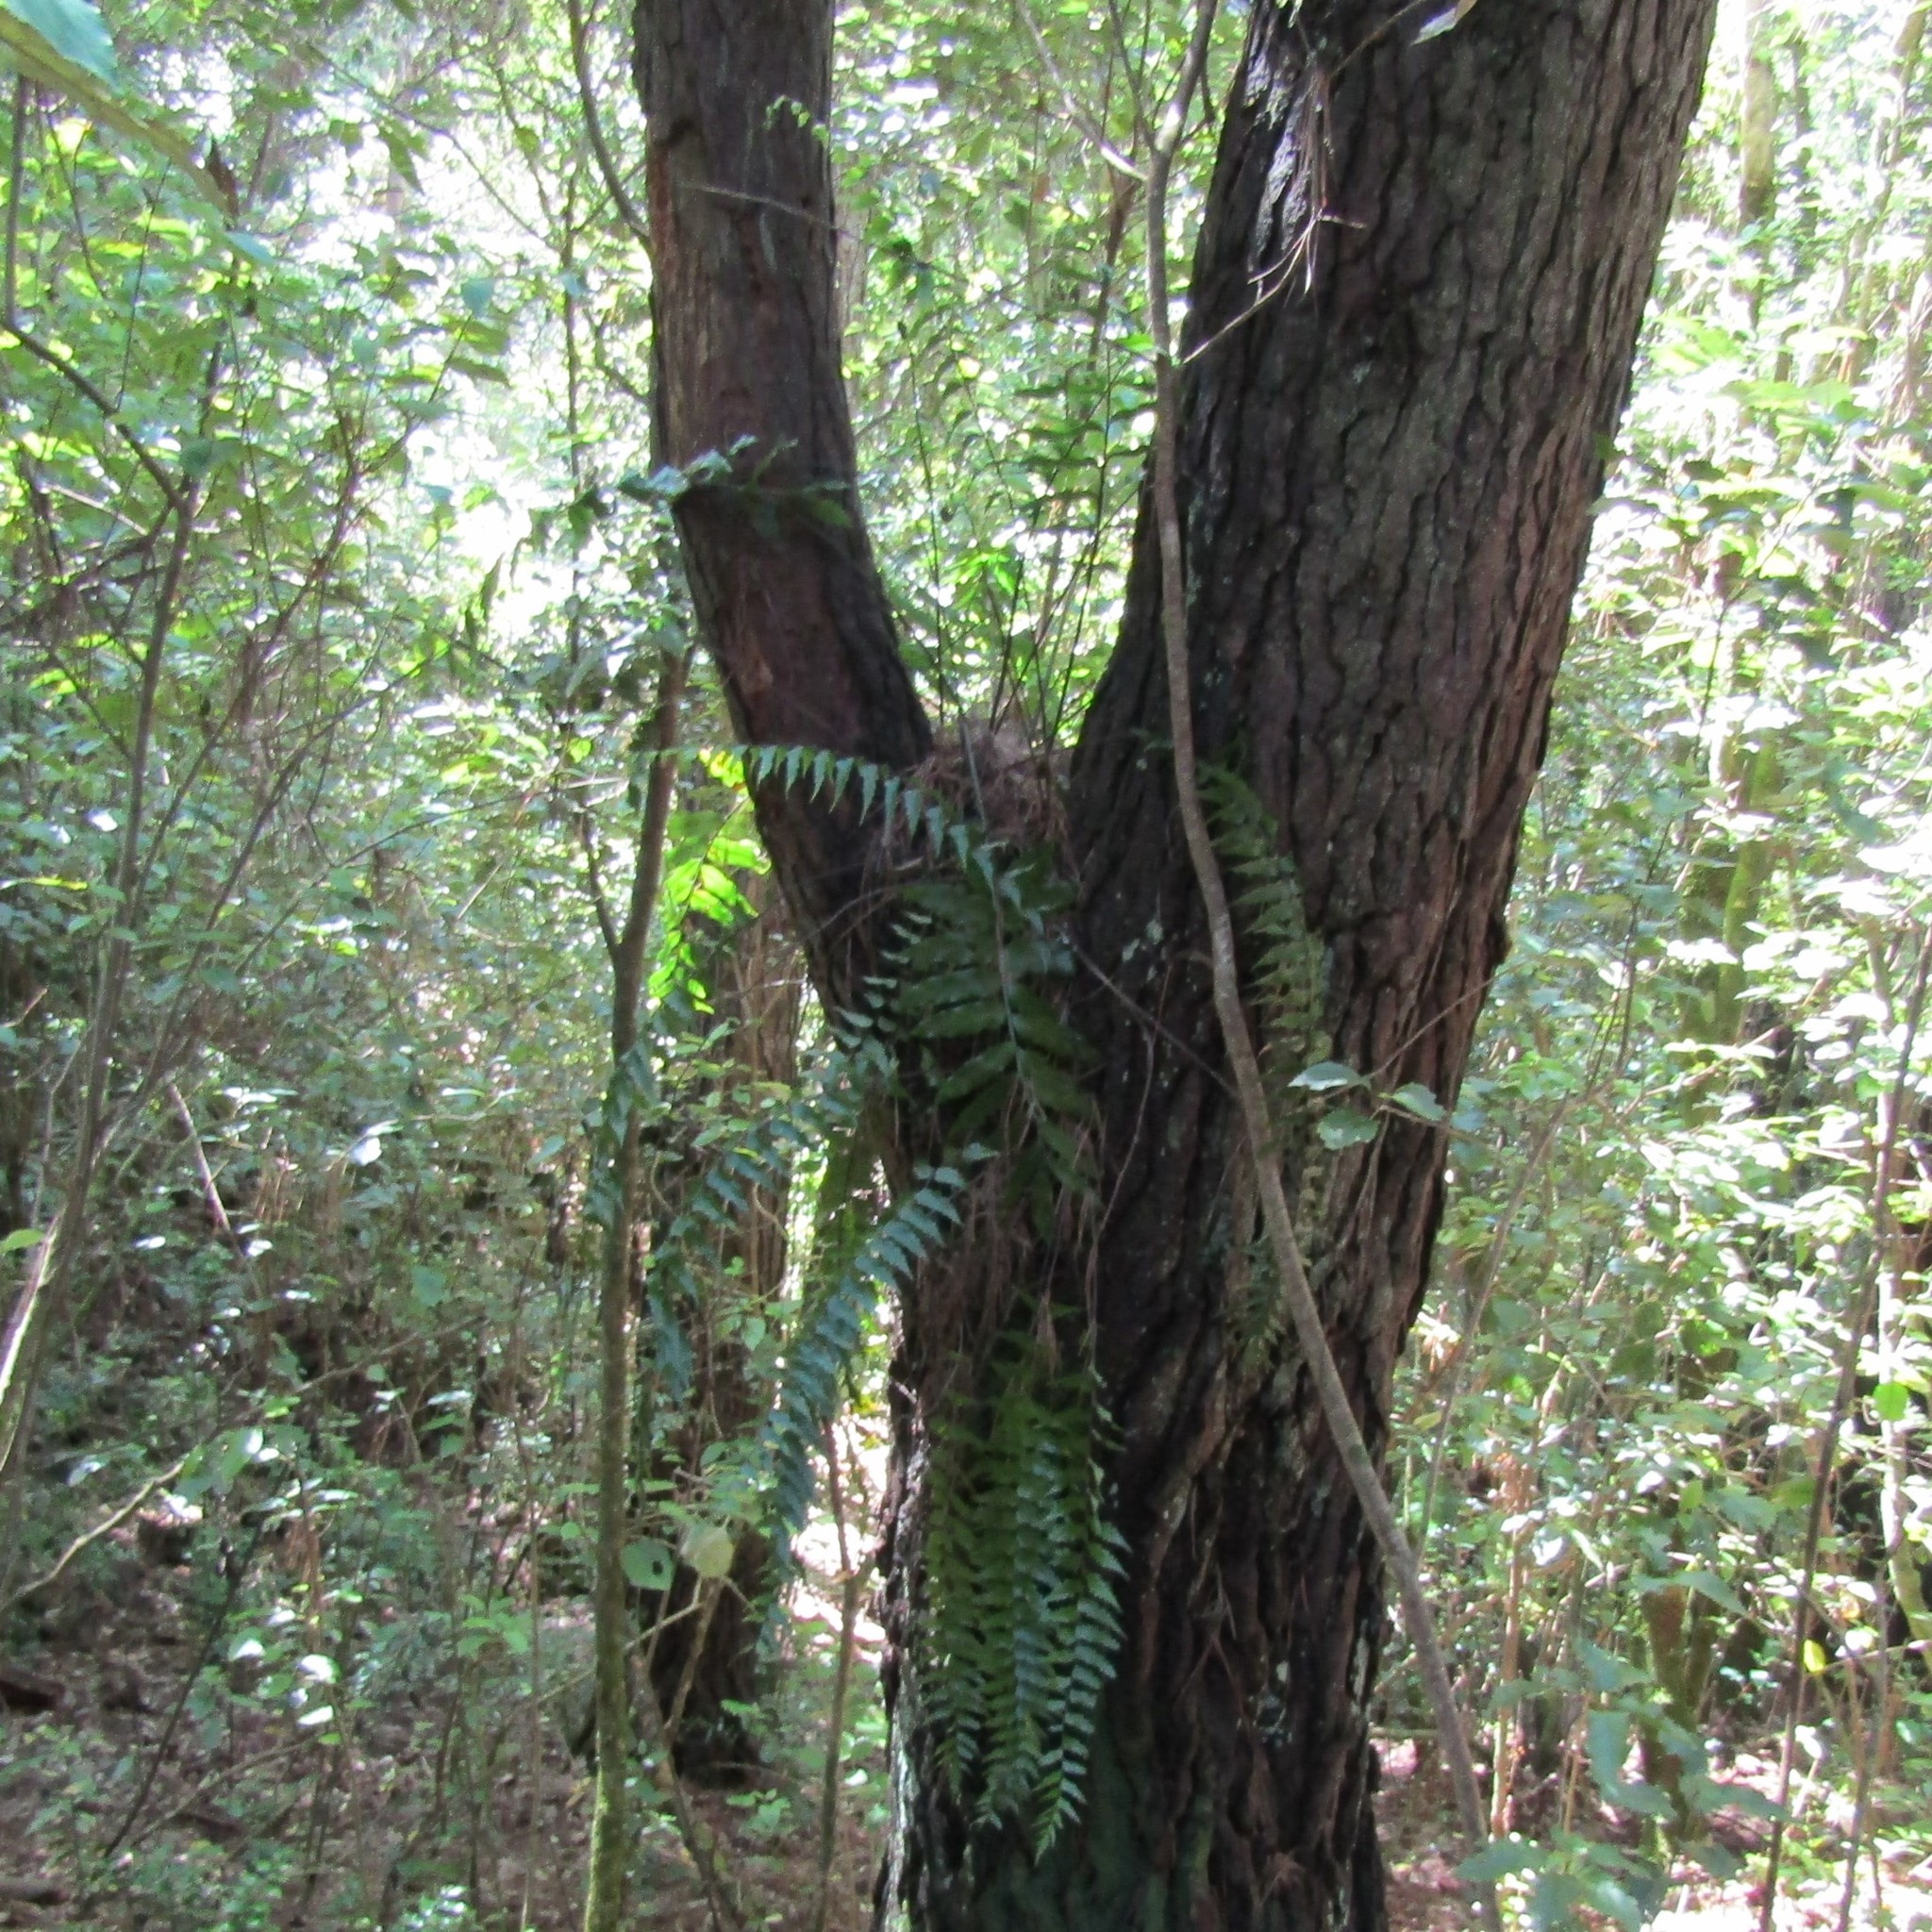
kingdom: Plantae
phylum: Tracheophyta
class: Polypodiopsida
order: Polypodiales
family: Aspleniaceae
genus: Asplenium
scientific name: Asplenium polyodon
